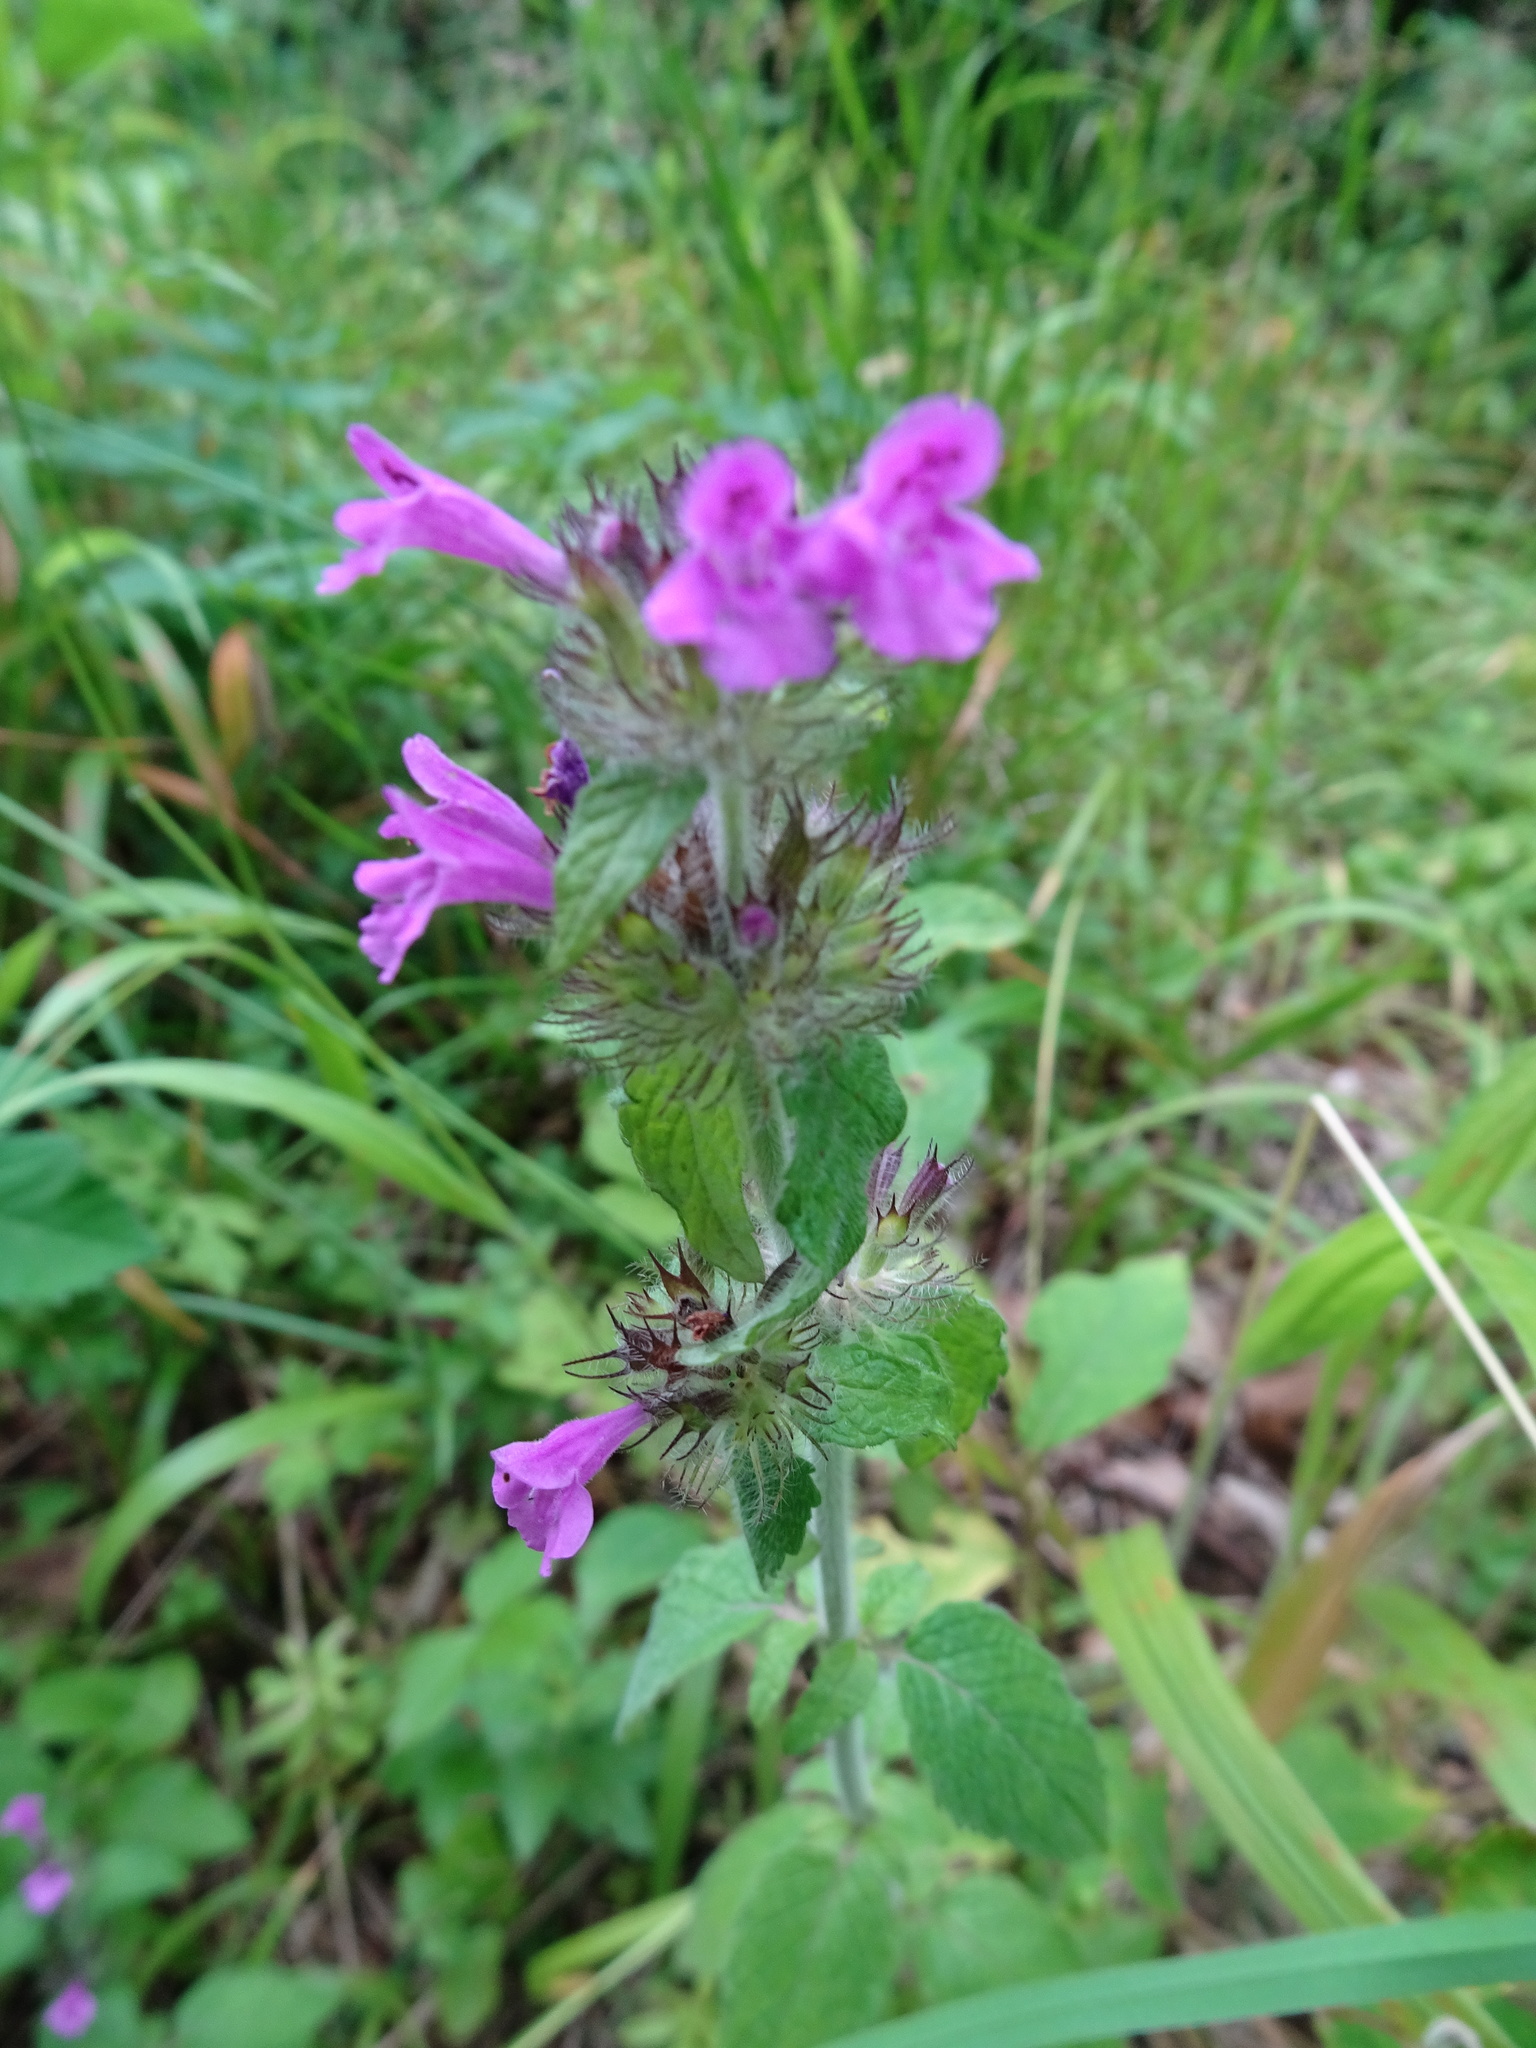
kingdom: Plantae
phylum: Tracheophyta
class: Magnoliopsida
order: Lamiales
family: Lamiaceae
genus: Clinopodium
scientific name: Clinopodium vulgare
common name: Wild basil
